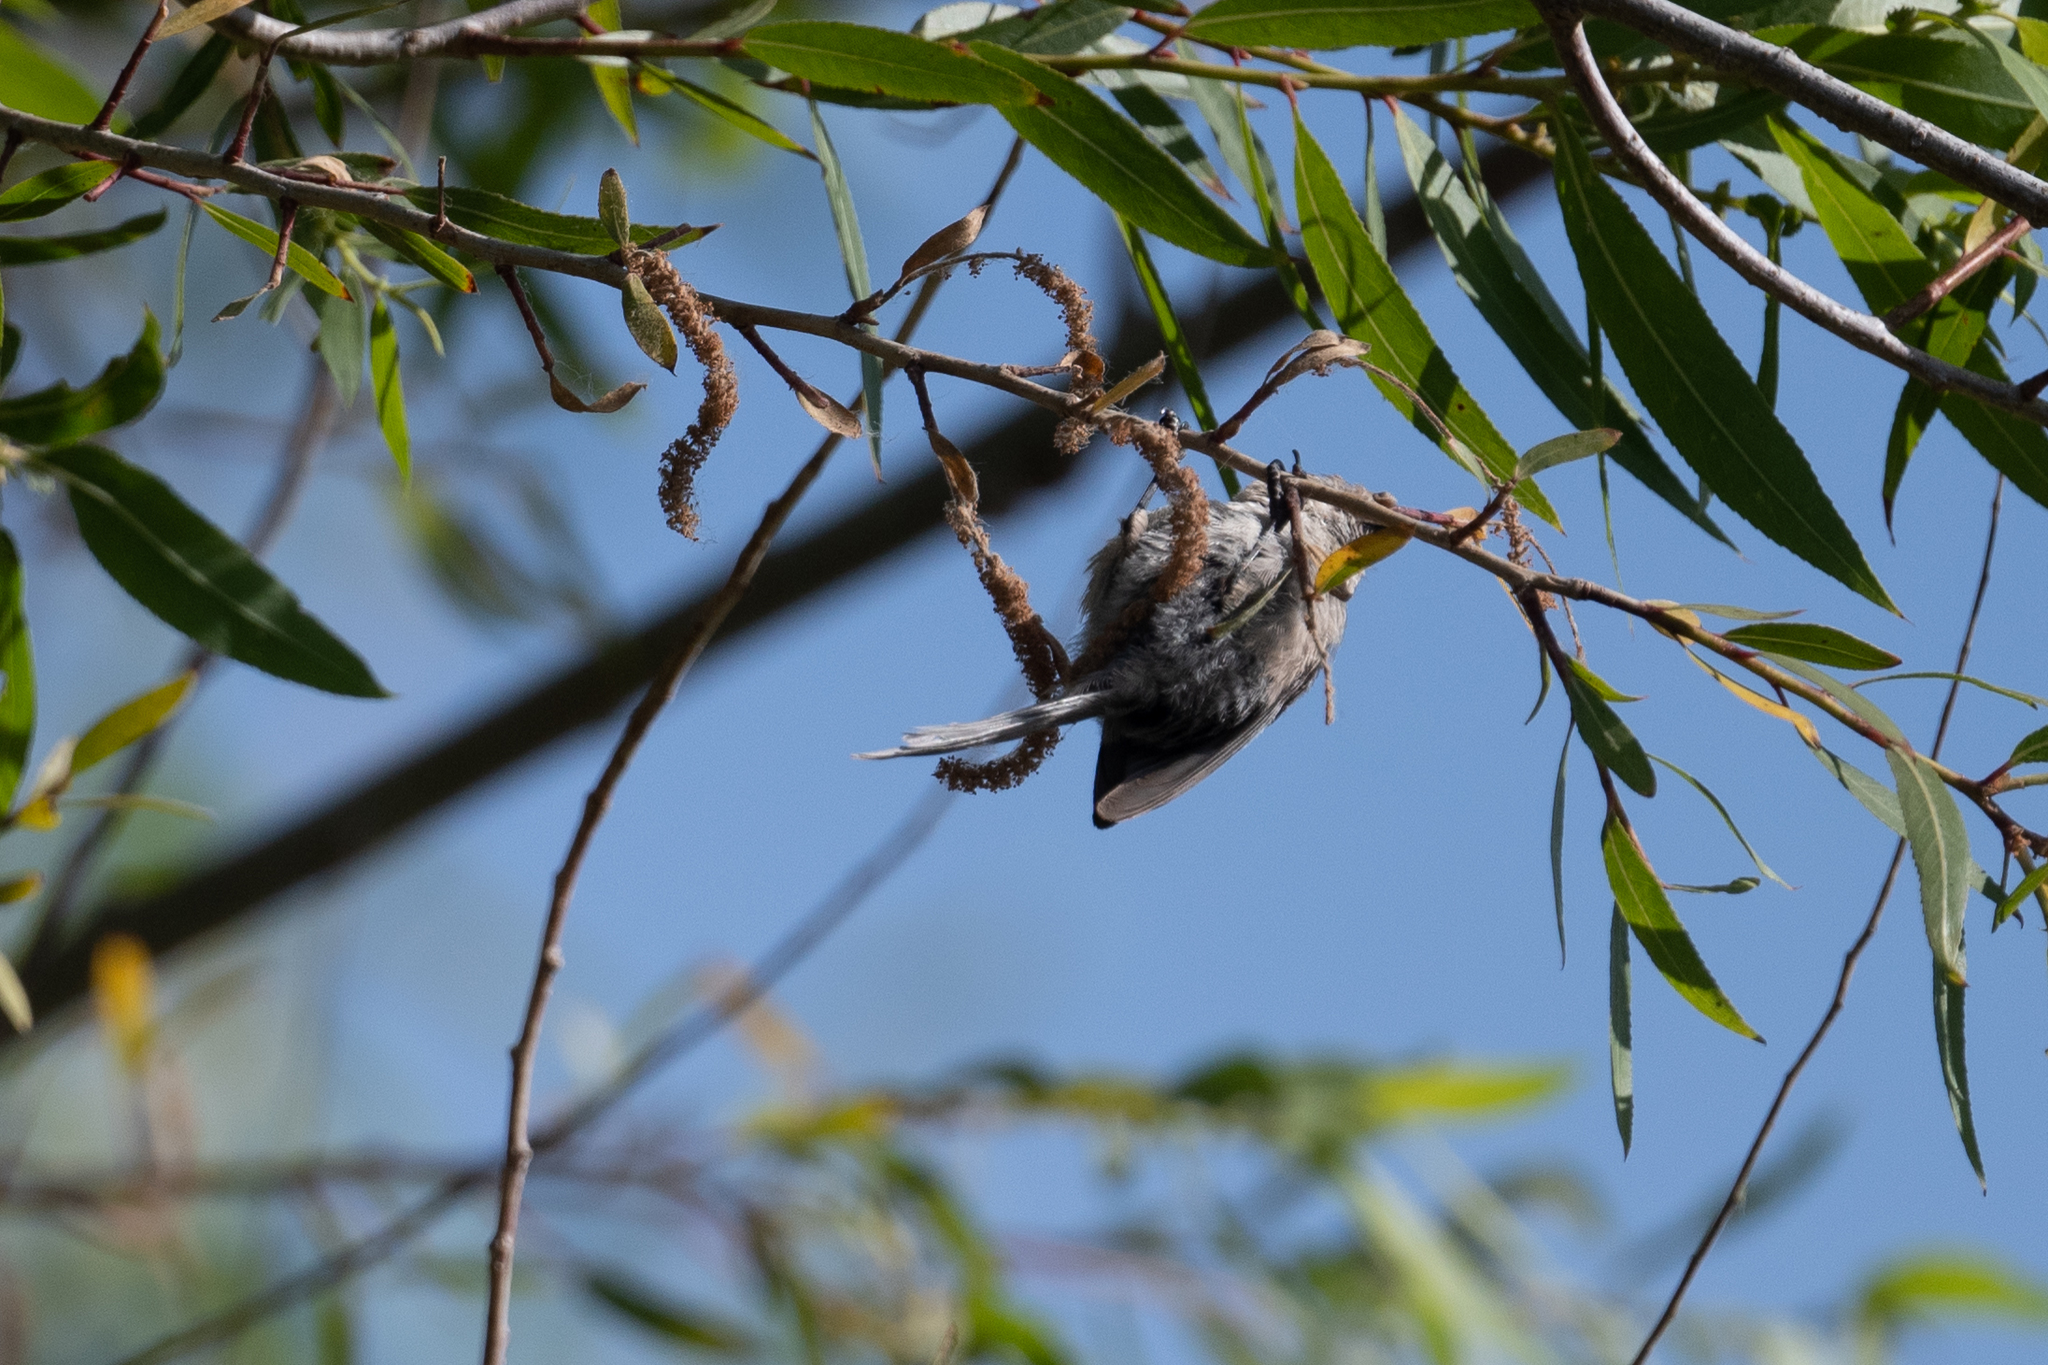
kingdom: Animalia
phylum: Chordata
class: Aves
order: Passeriformes
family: Aegithalidae
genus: Psaltriparus
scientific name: Psaltriparus minimus
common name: American bushtit
